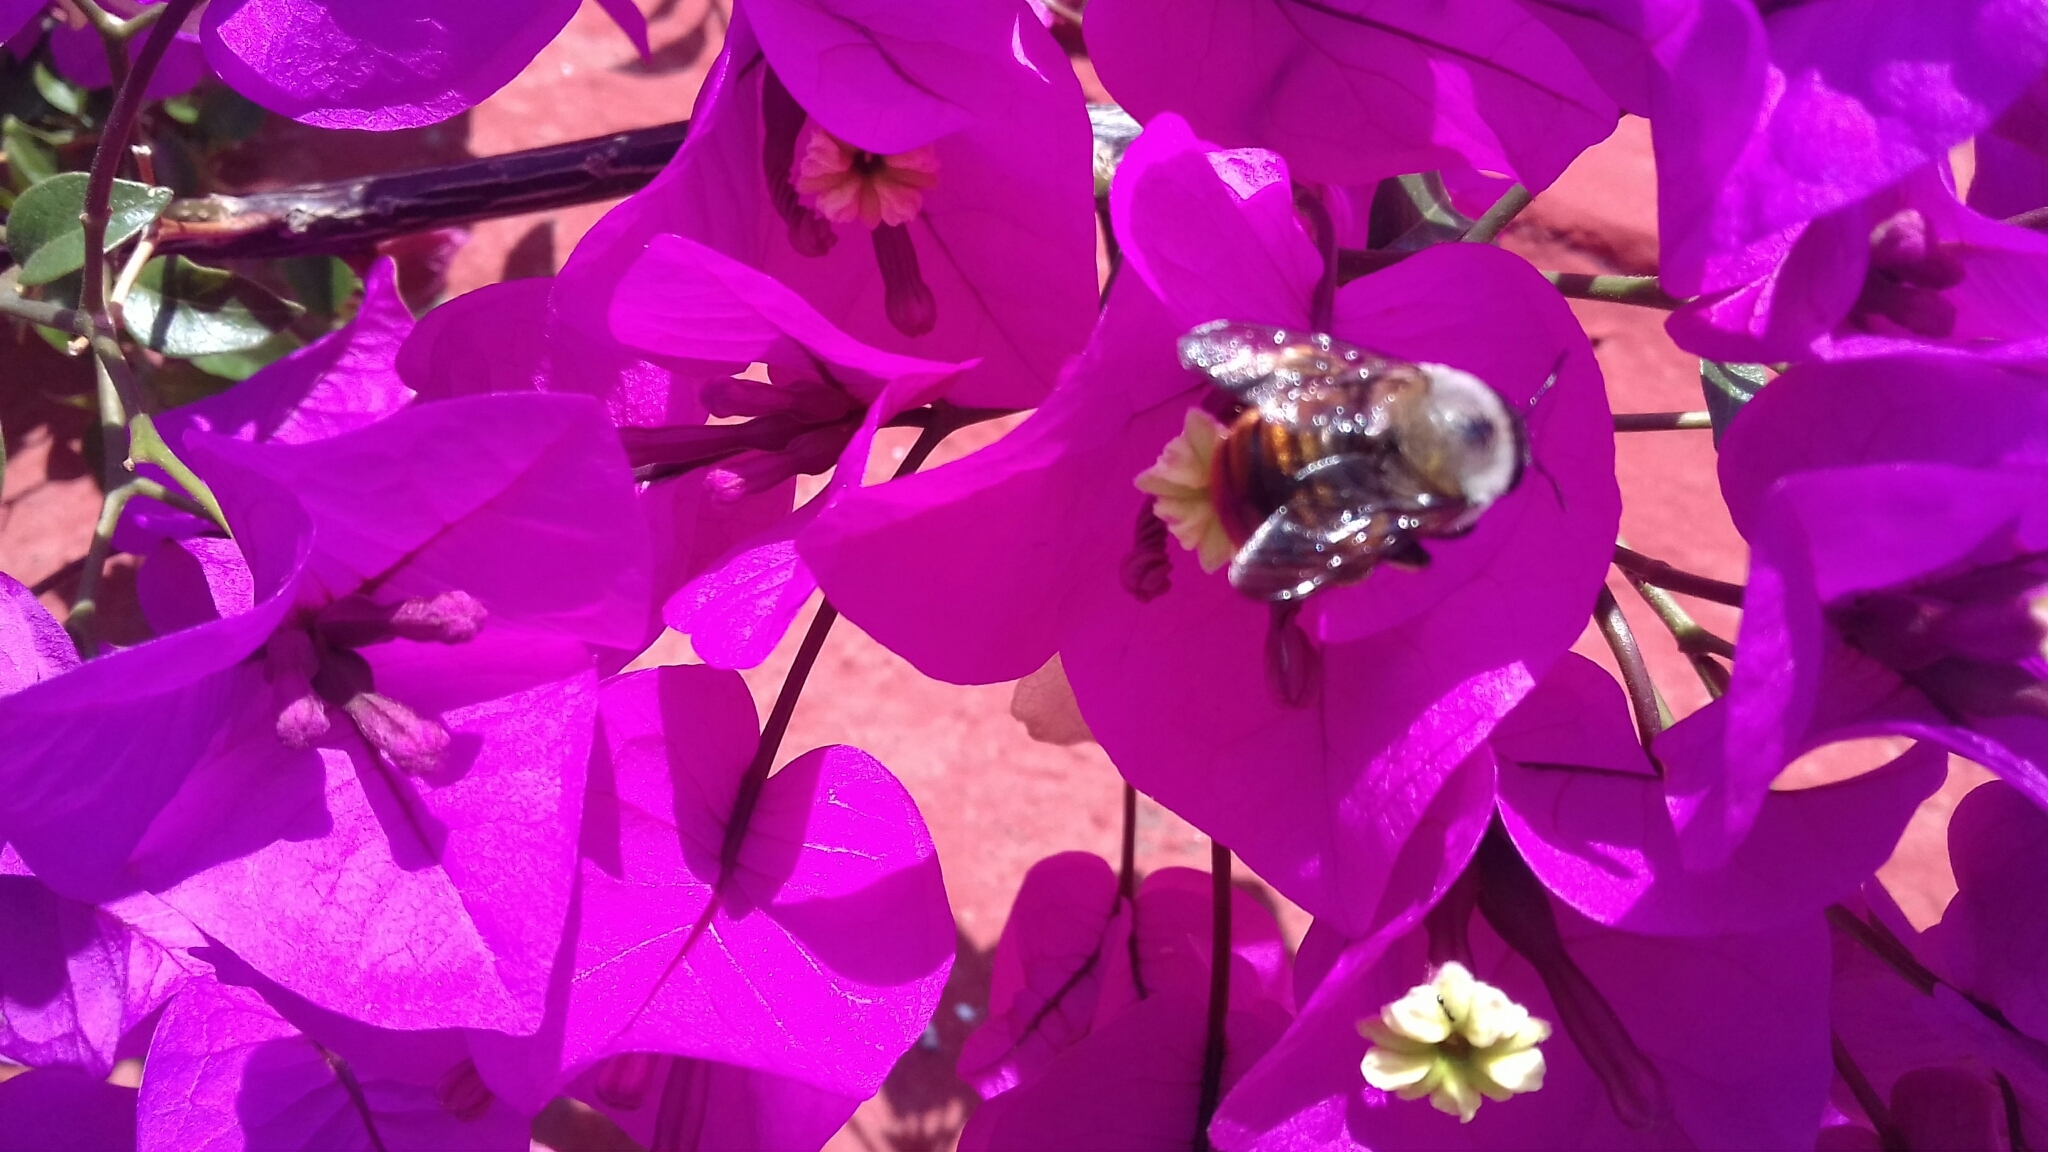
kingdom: Animalia
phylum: Arthropoda
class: Insecta
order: Hymenoptera
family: Apidae
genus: Xylocopa
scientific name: Xylocopa tabaniformis
